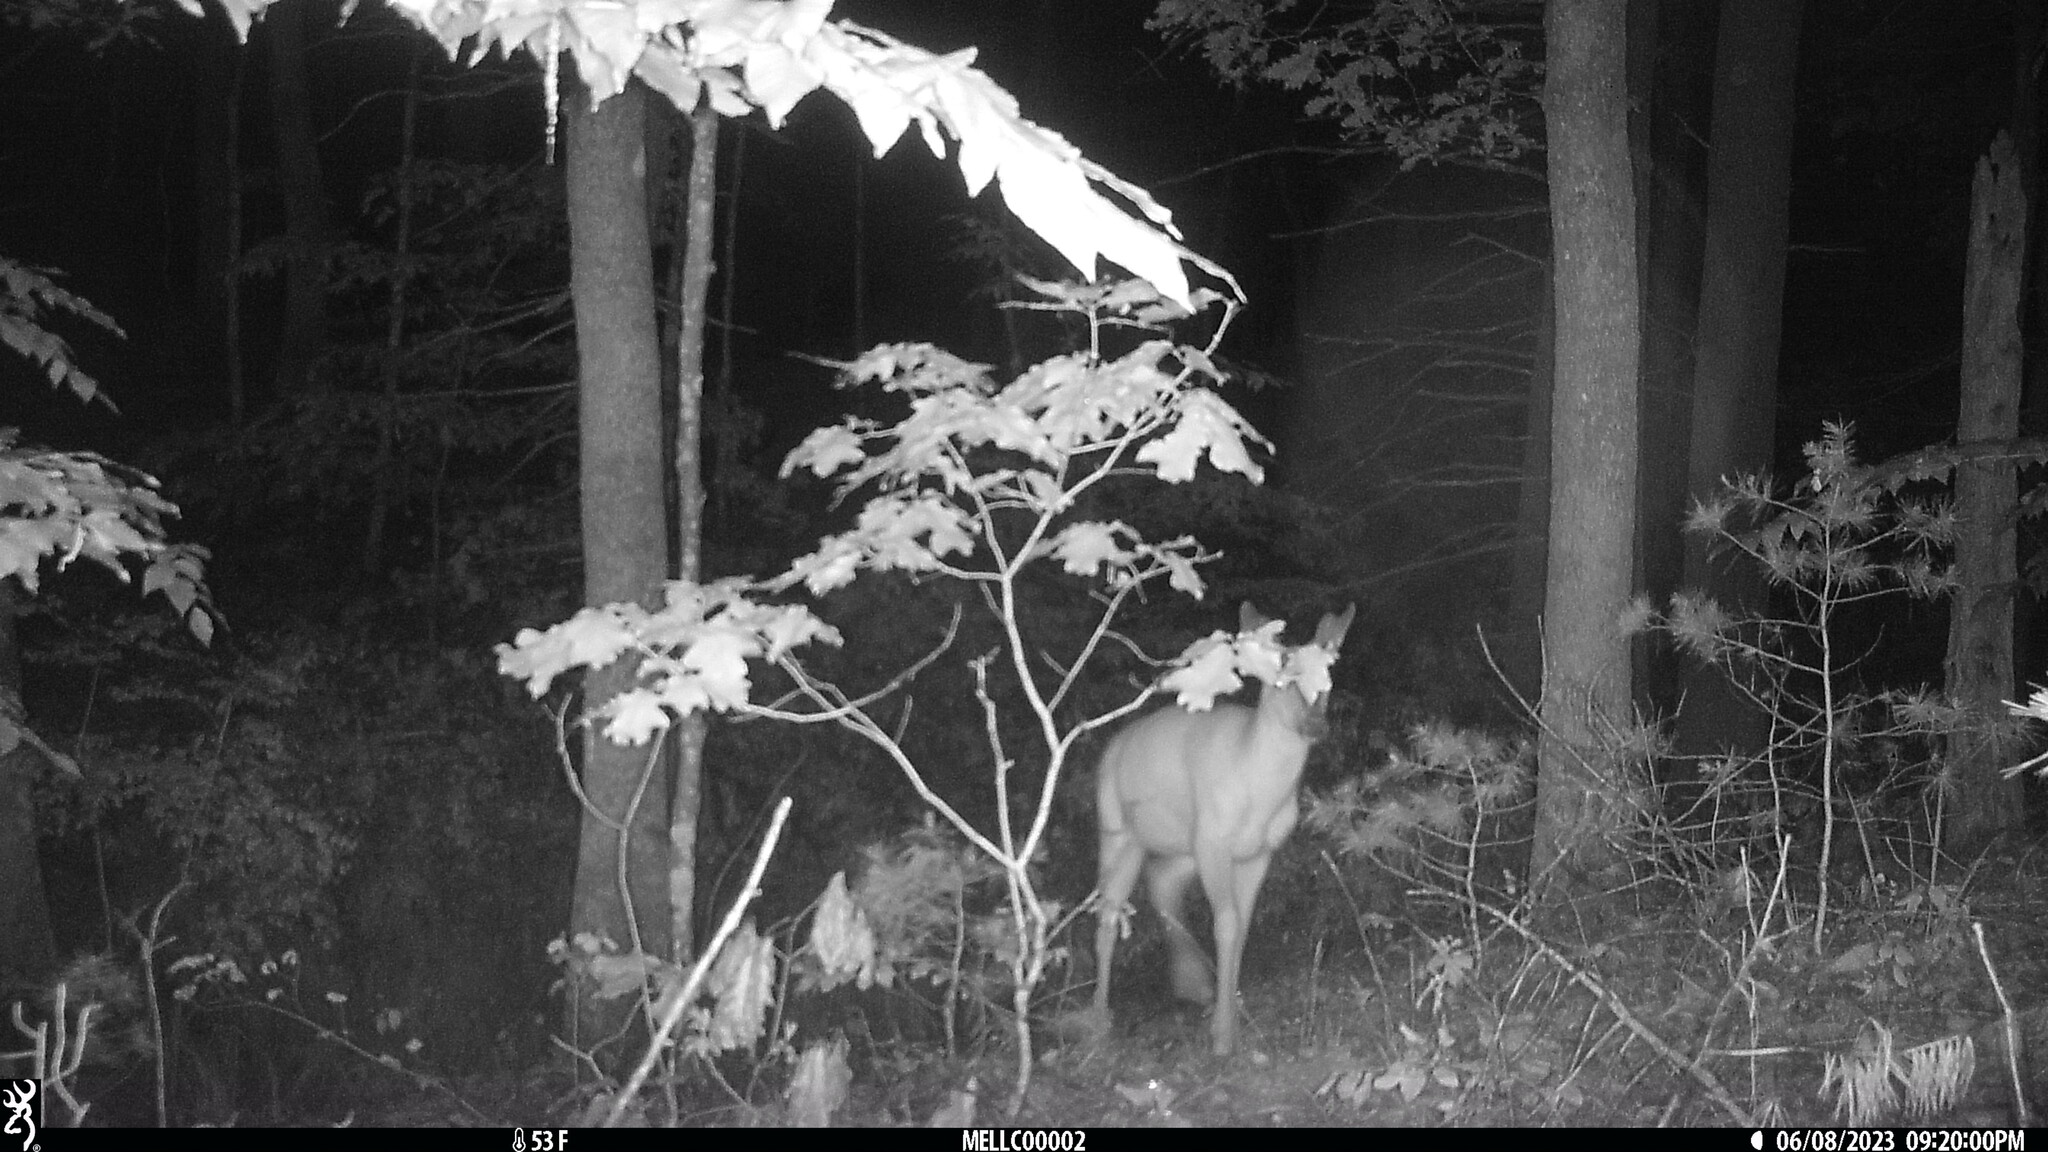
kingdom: Animalia
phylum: Chordata
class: Mammalia
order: Artiodactyla
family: Cervidae
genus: Odocoileus
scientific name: Odocoileus virginianus
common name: White-tailed deer
